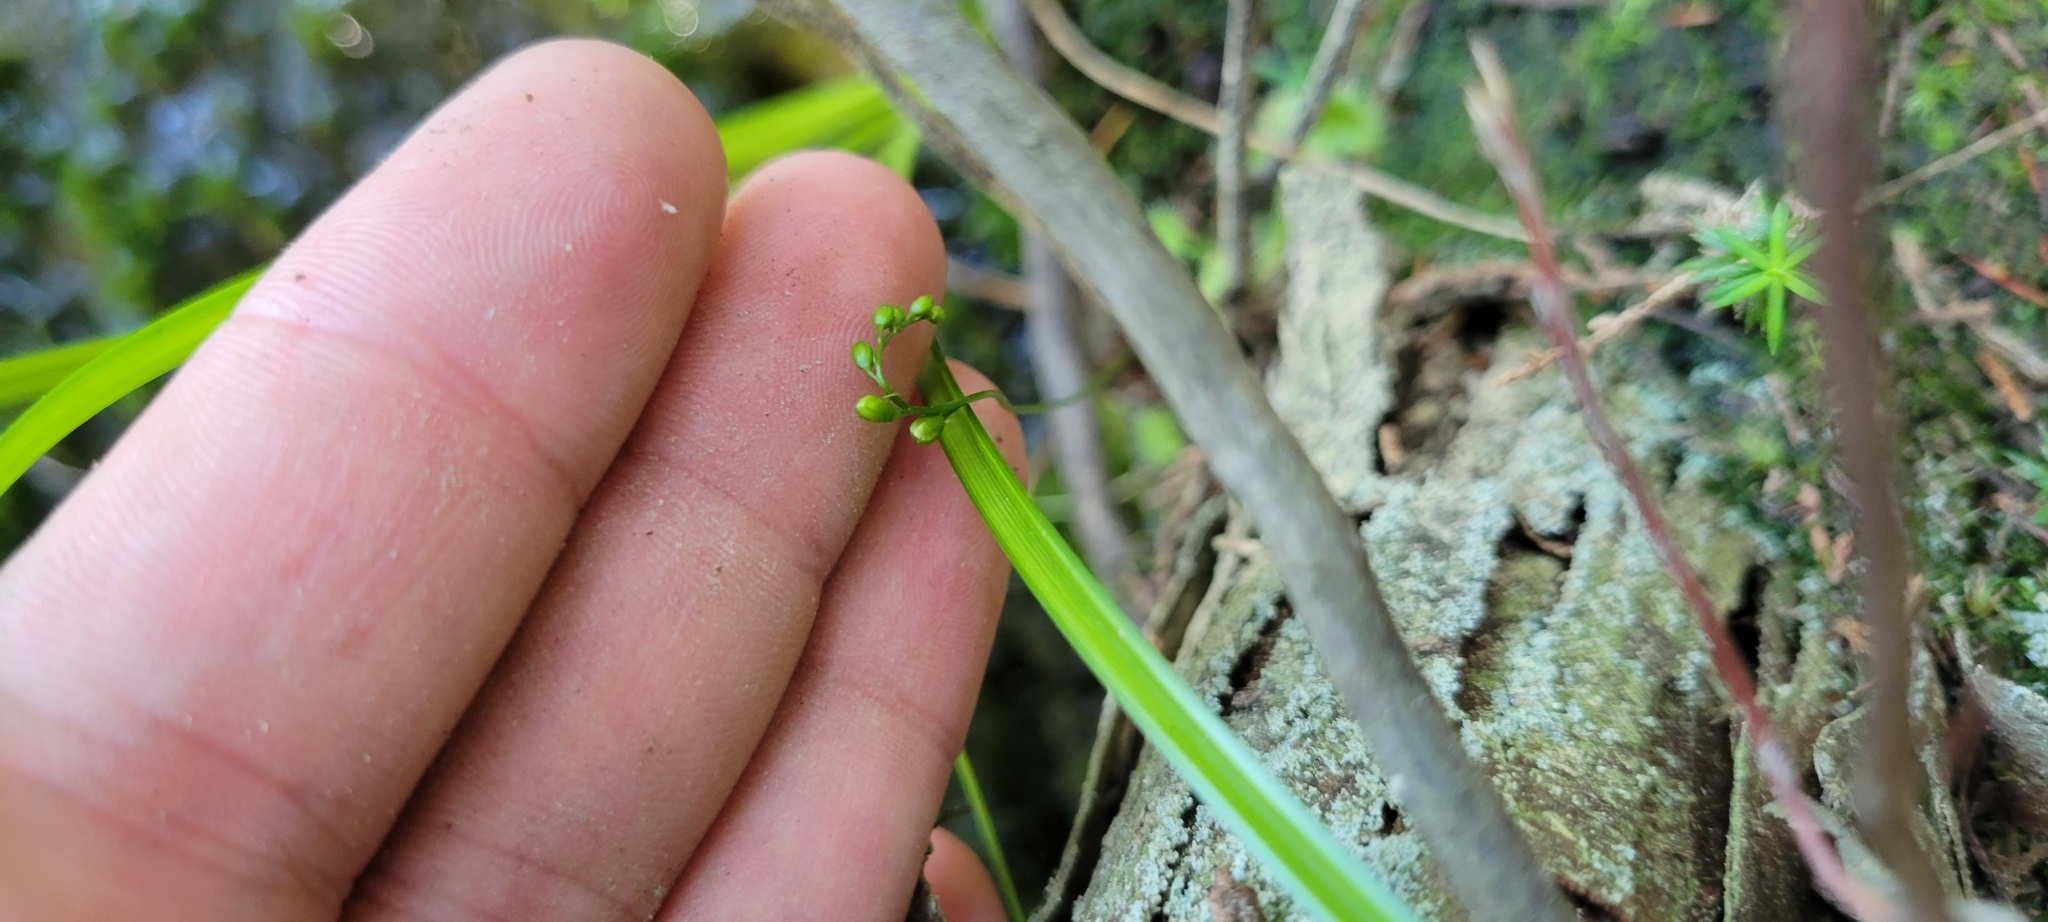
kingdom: Plantae
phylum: Tracheophyta
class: Magnoliopsida
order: Caryophyllales
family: Droseraceae
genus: Drosera
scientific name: Drosera rotundifolia
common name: Round-leaved sundew
